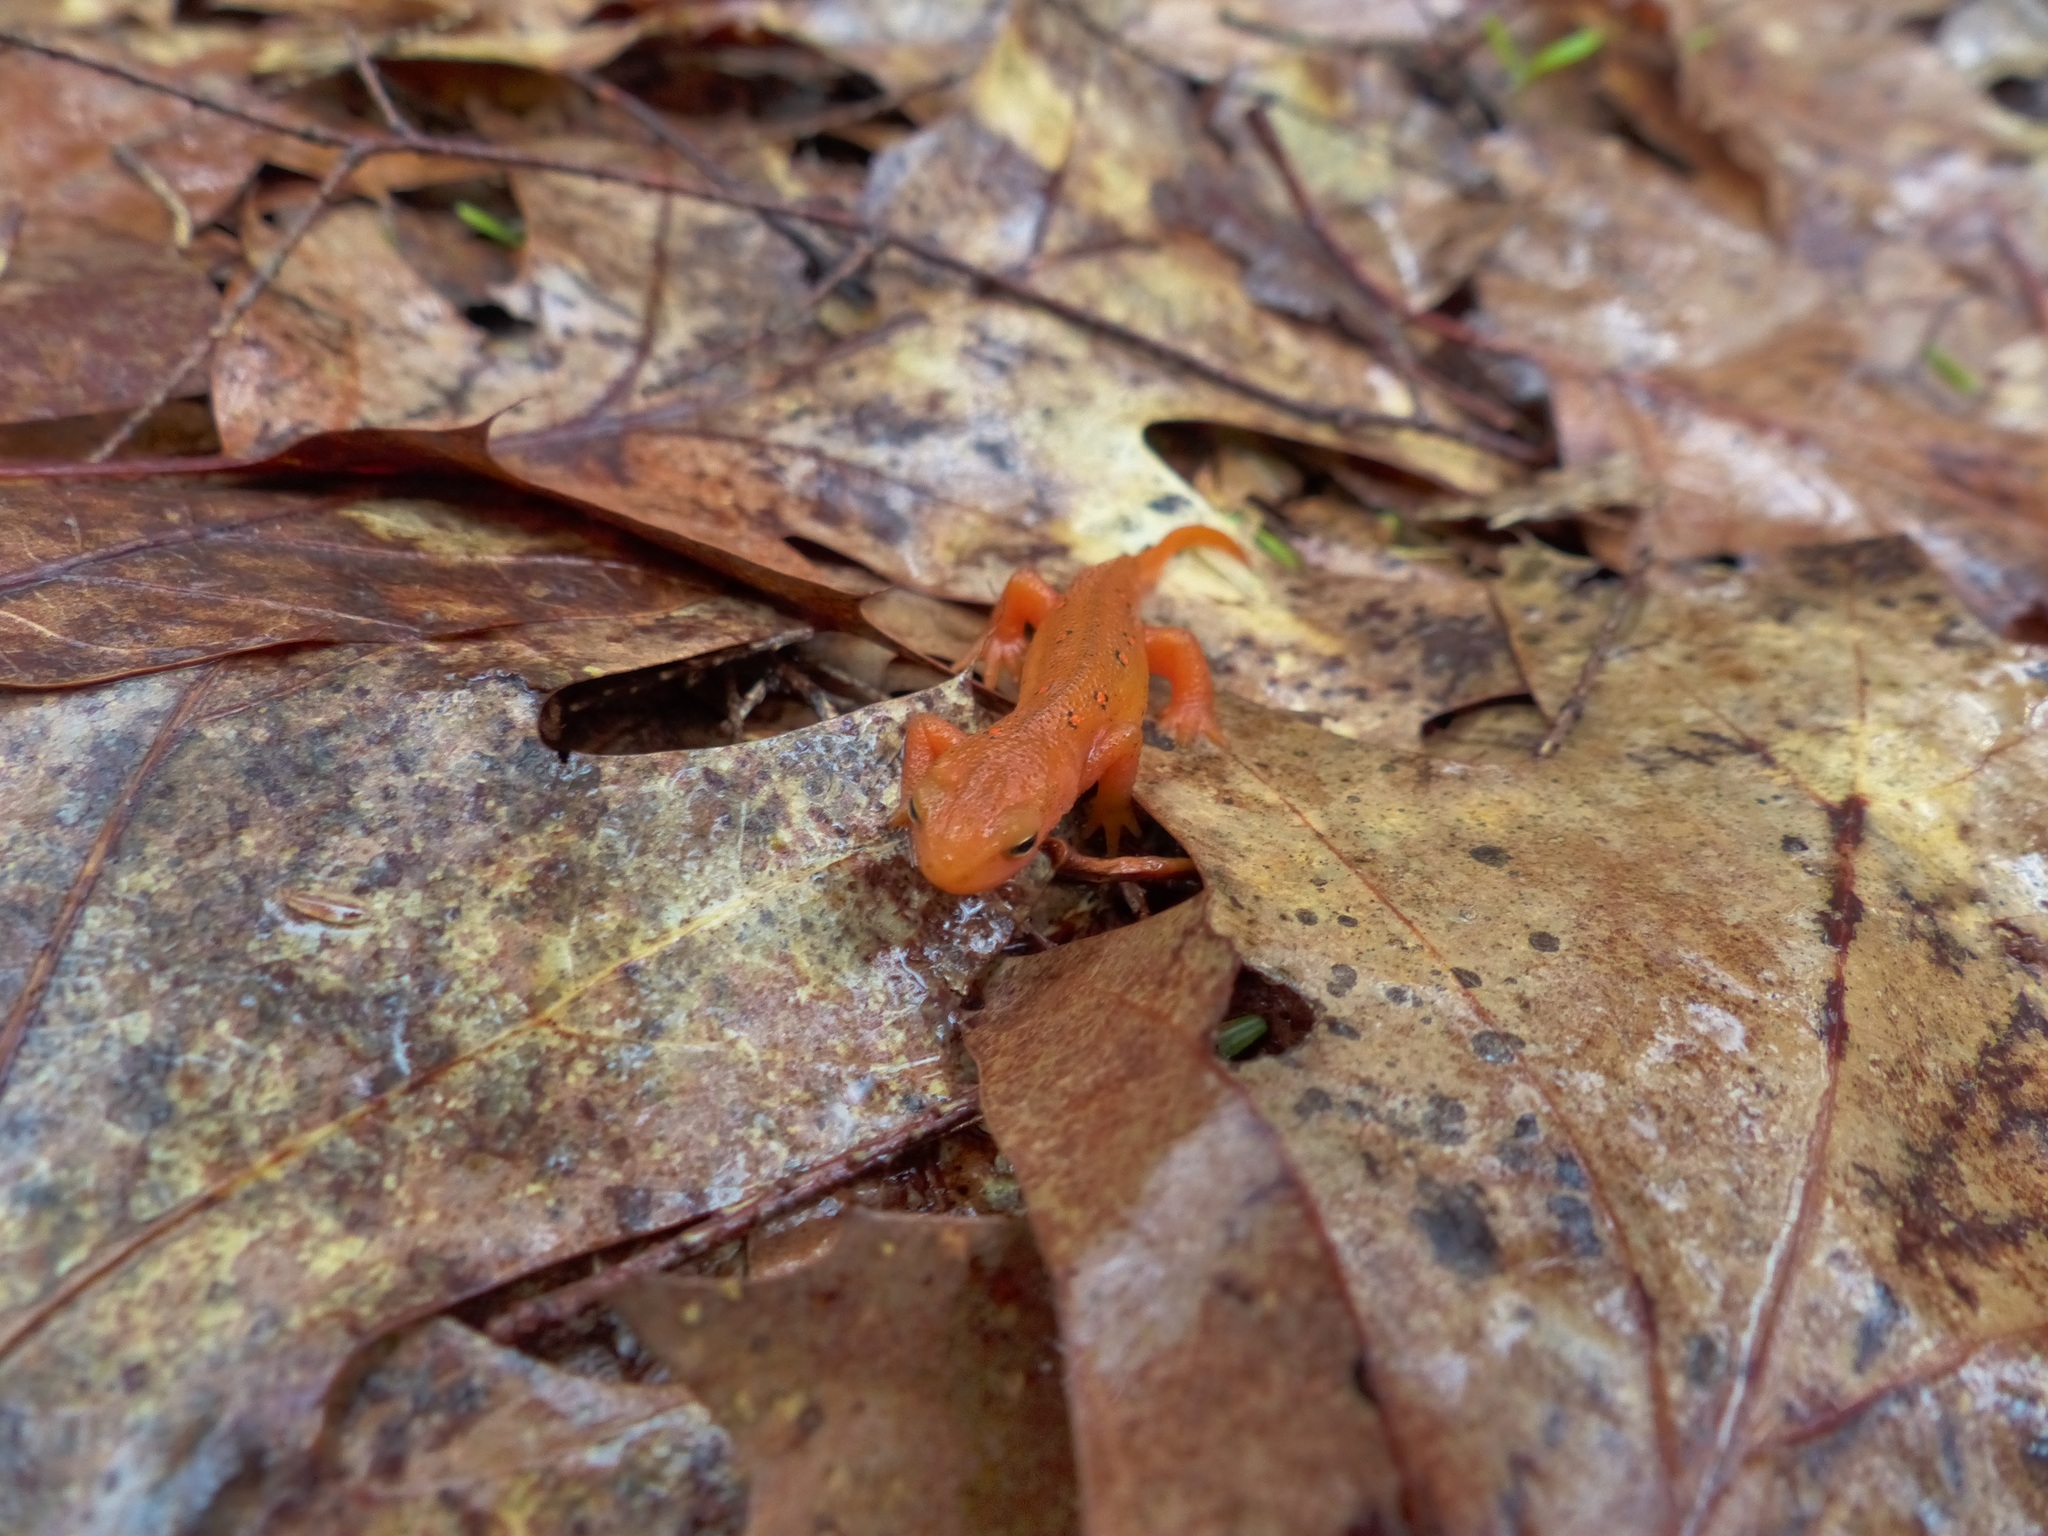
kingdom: Animalia
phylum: Chordata
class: Amphibia
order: Caudata
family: Salamandridae
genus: Notophthalmus
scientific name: Notophthalmus viridescens
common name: Eastern newt
